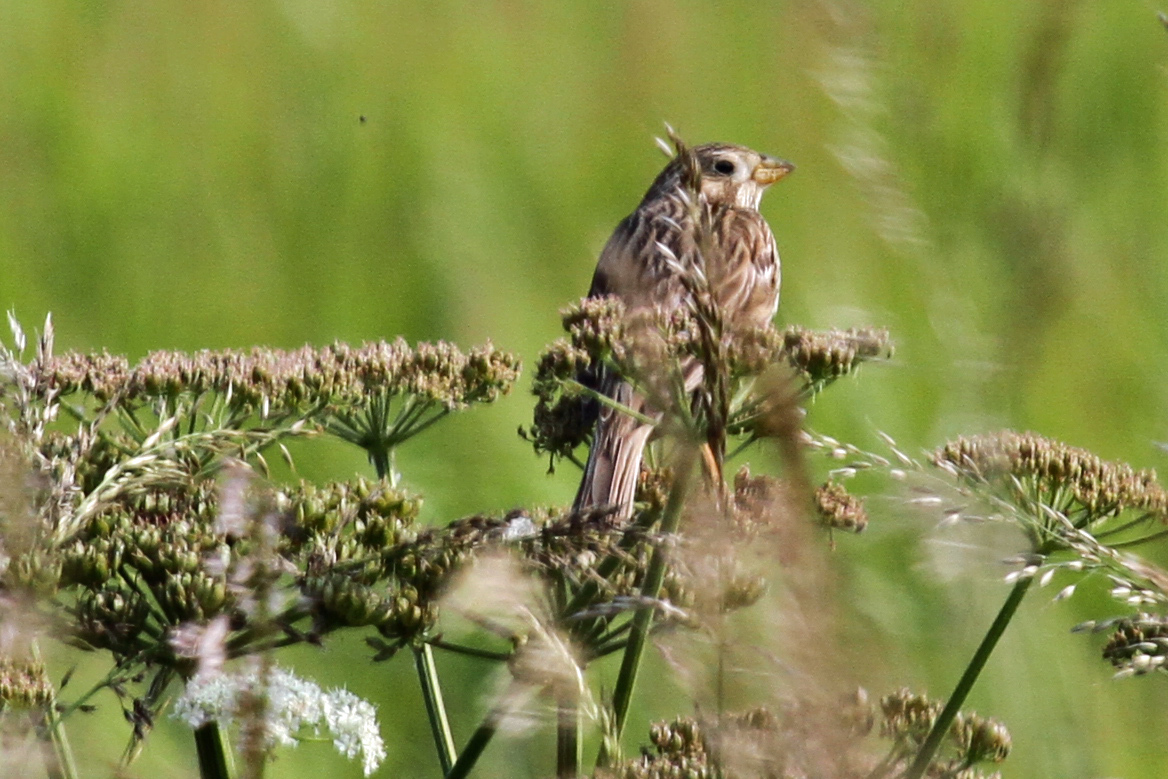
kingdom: Animalia
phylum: Chordata
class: Aves
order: Passeriformes
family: Emberizidae
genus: Emberiza
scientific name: Emberiza calandra
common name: Corn bunting
